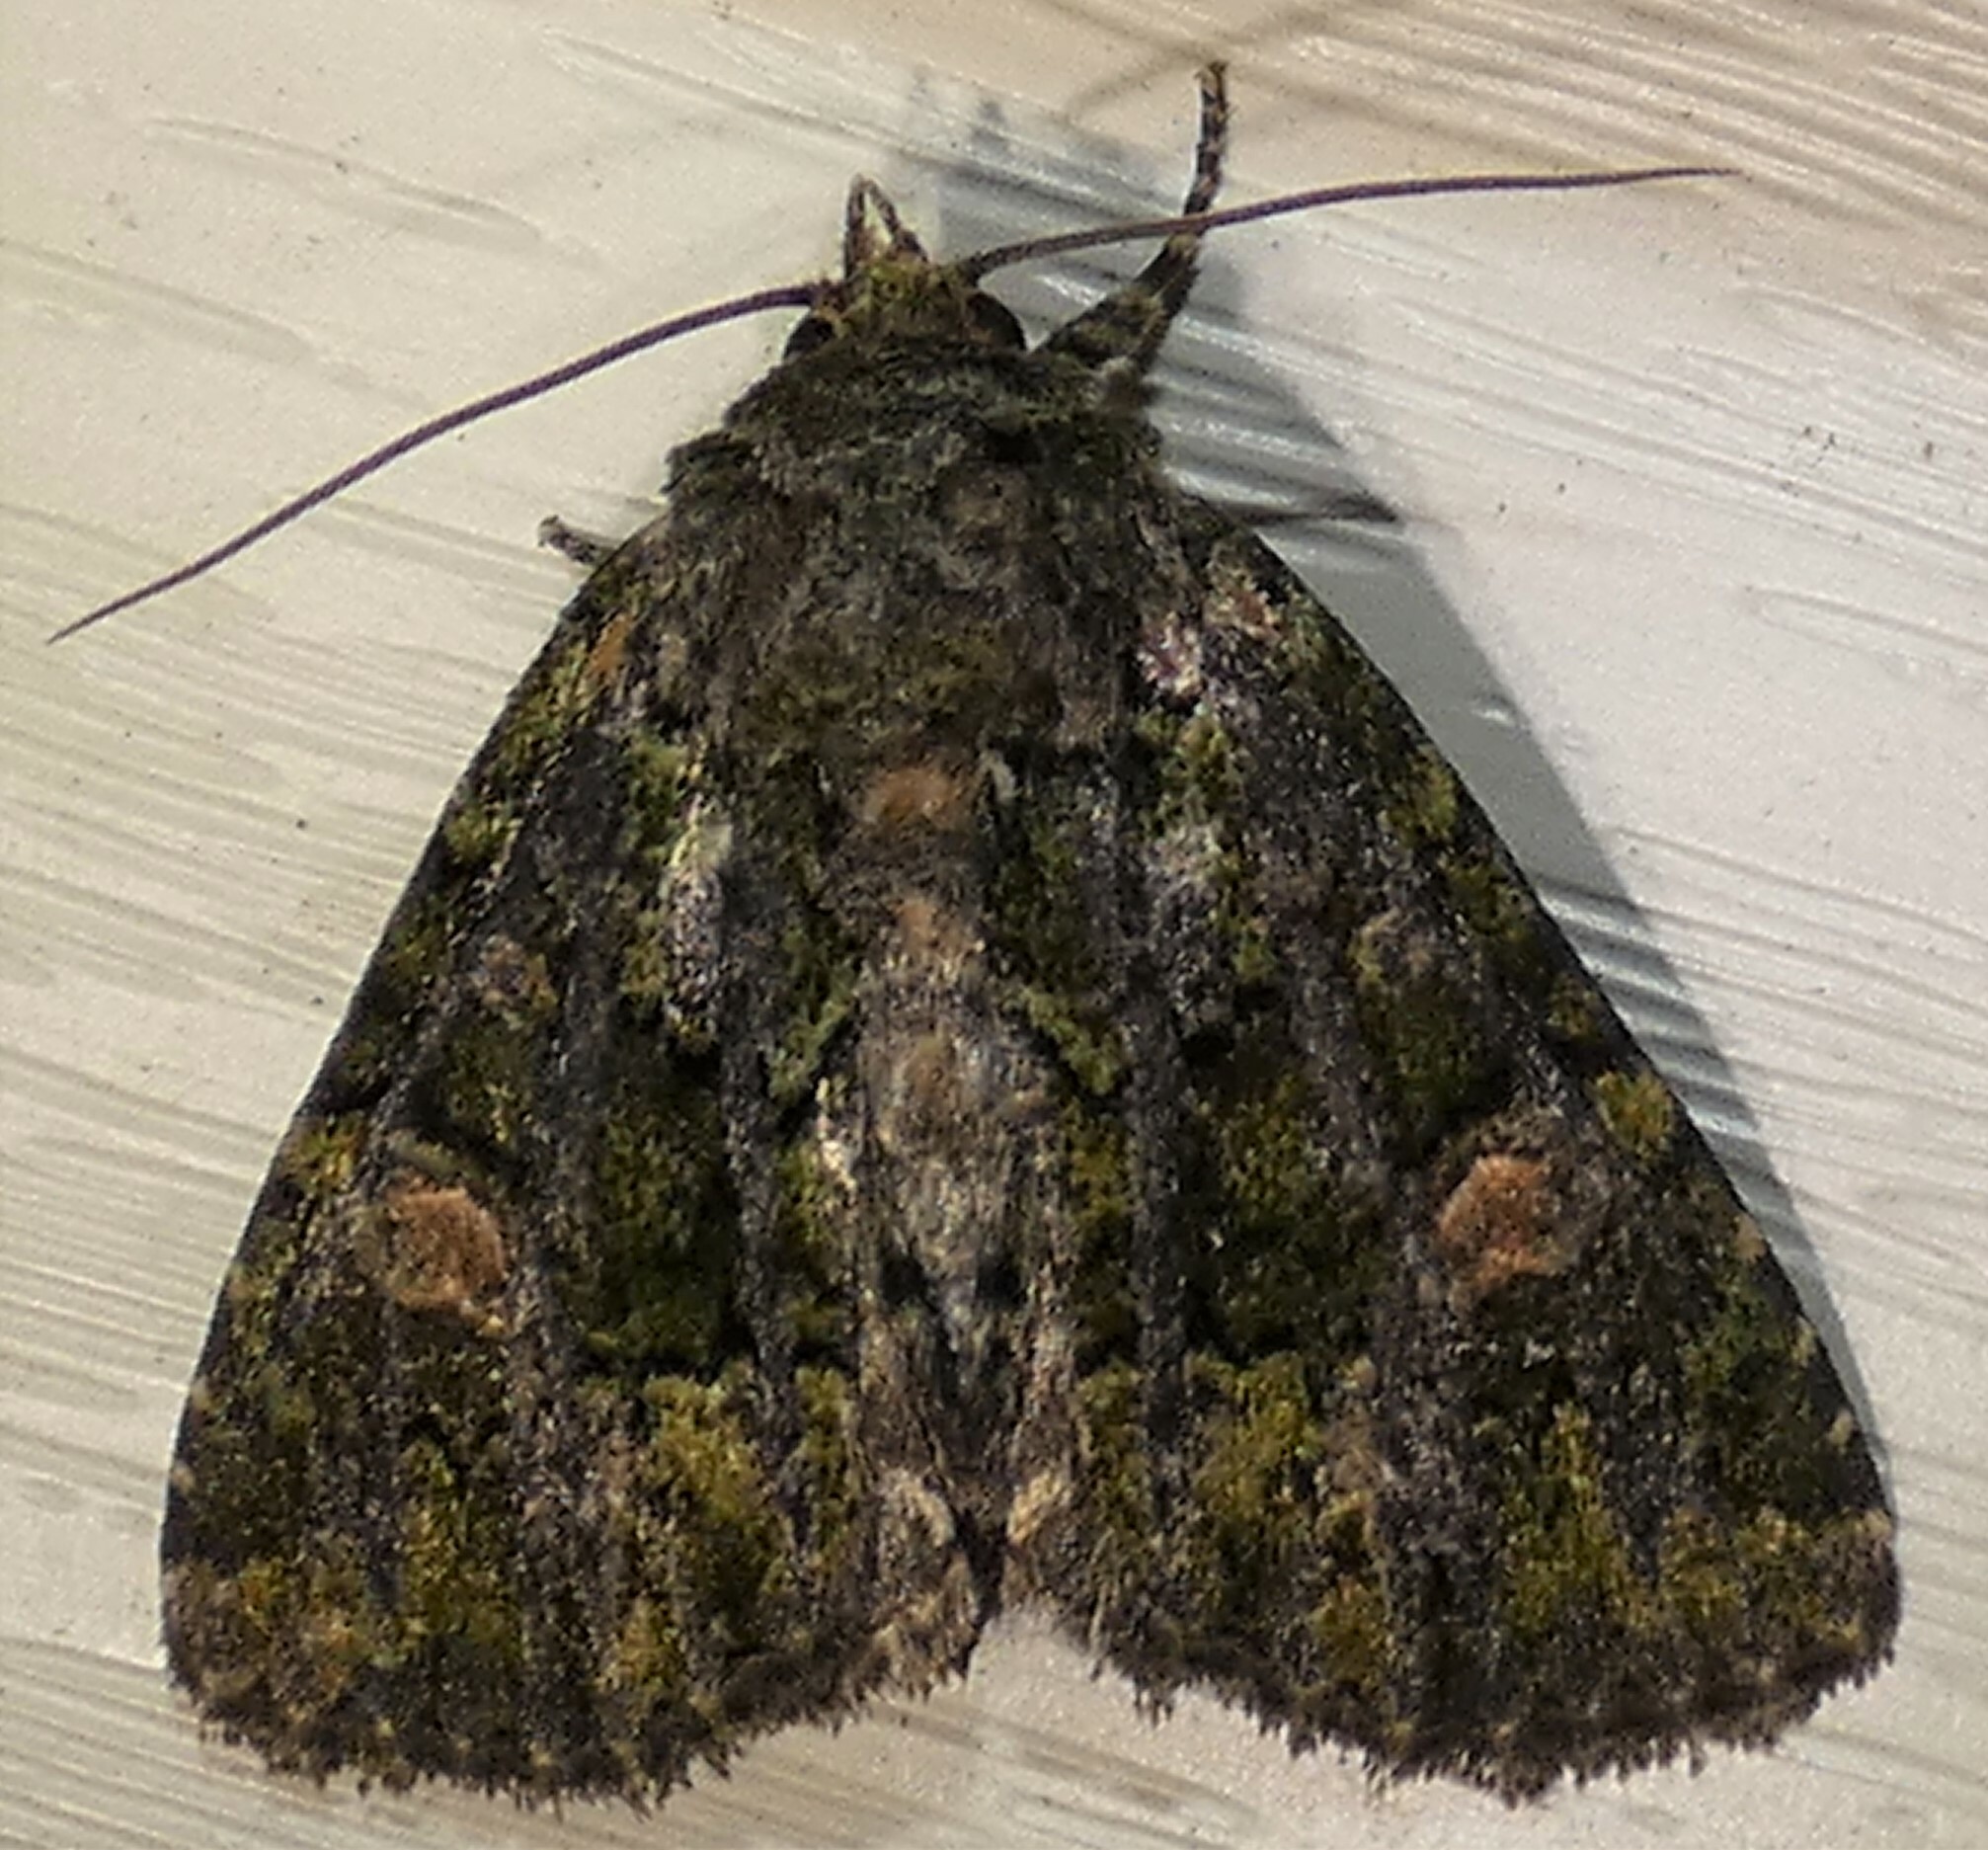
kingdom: Animalia
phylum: Arthropoda
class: Insecta
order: Lepidoptera
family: Noctuidae
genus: Phosphila
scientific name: Phosphila miselioides
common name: Spotted phosphila moth
